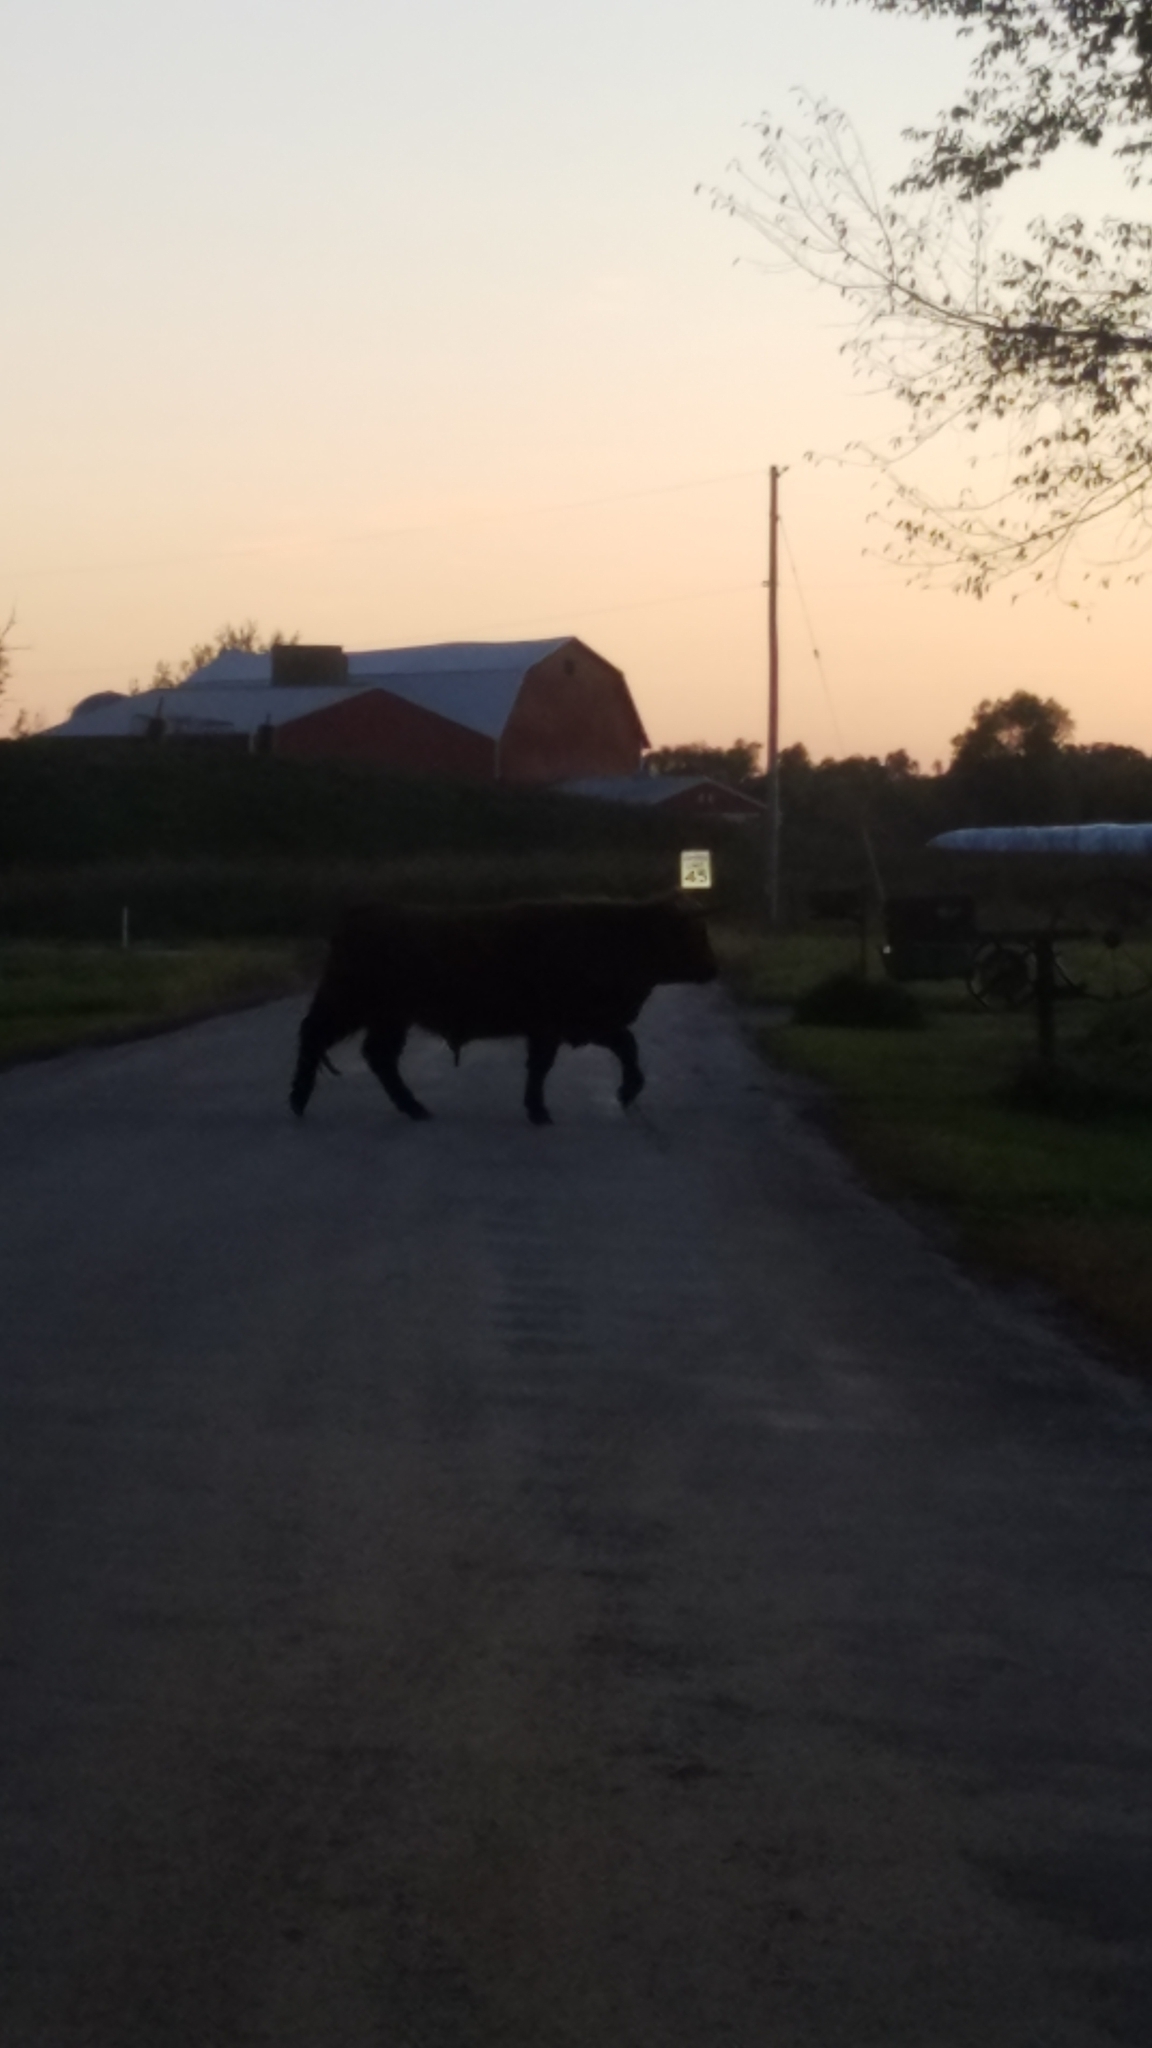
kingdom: Animalia
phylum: Chordata
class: Mammalia
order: Artiodactyla
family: Bovidae
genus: Bos
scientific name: Bos taurus
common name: Domesticated cattle
